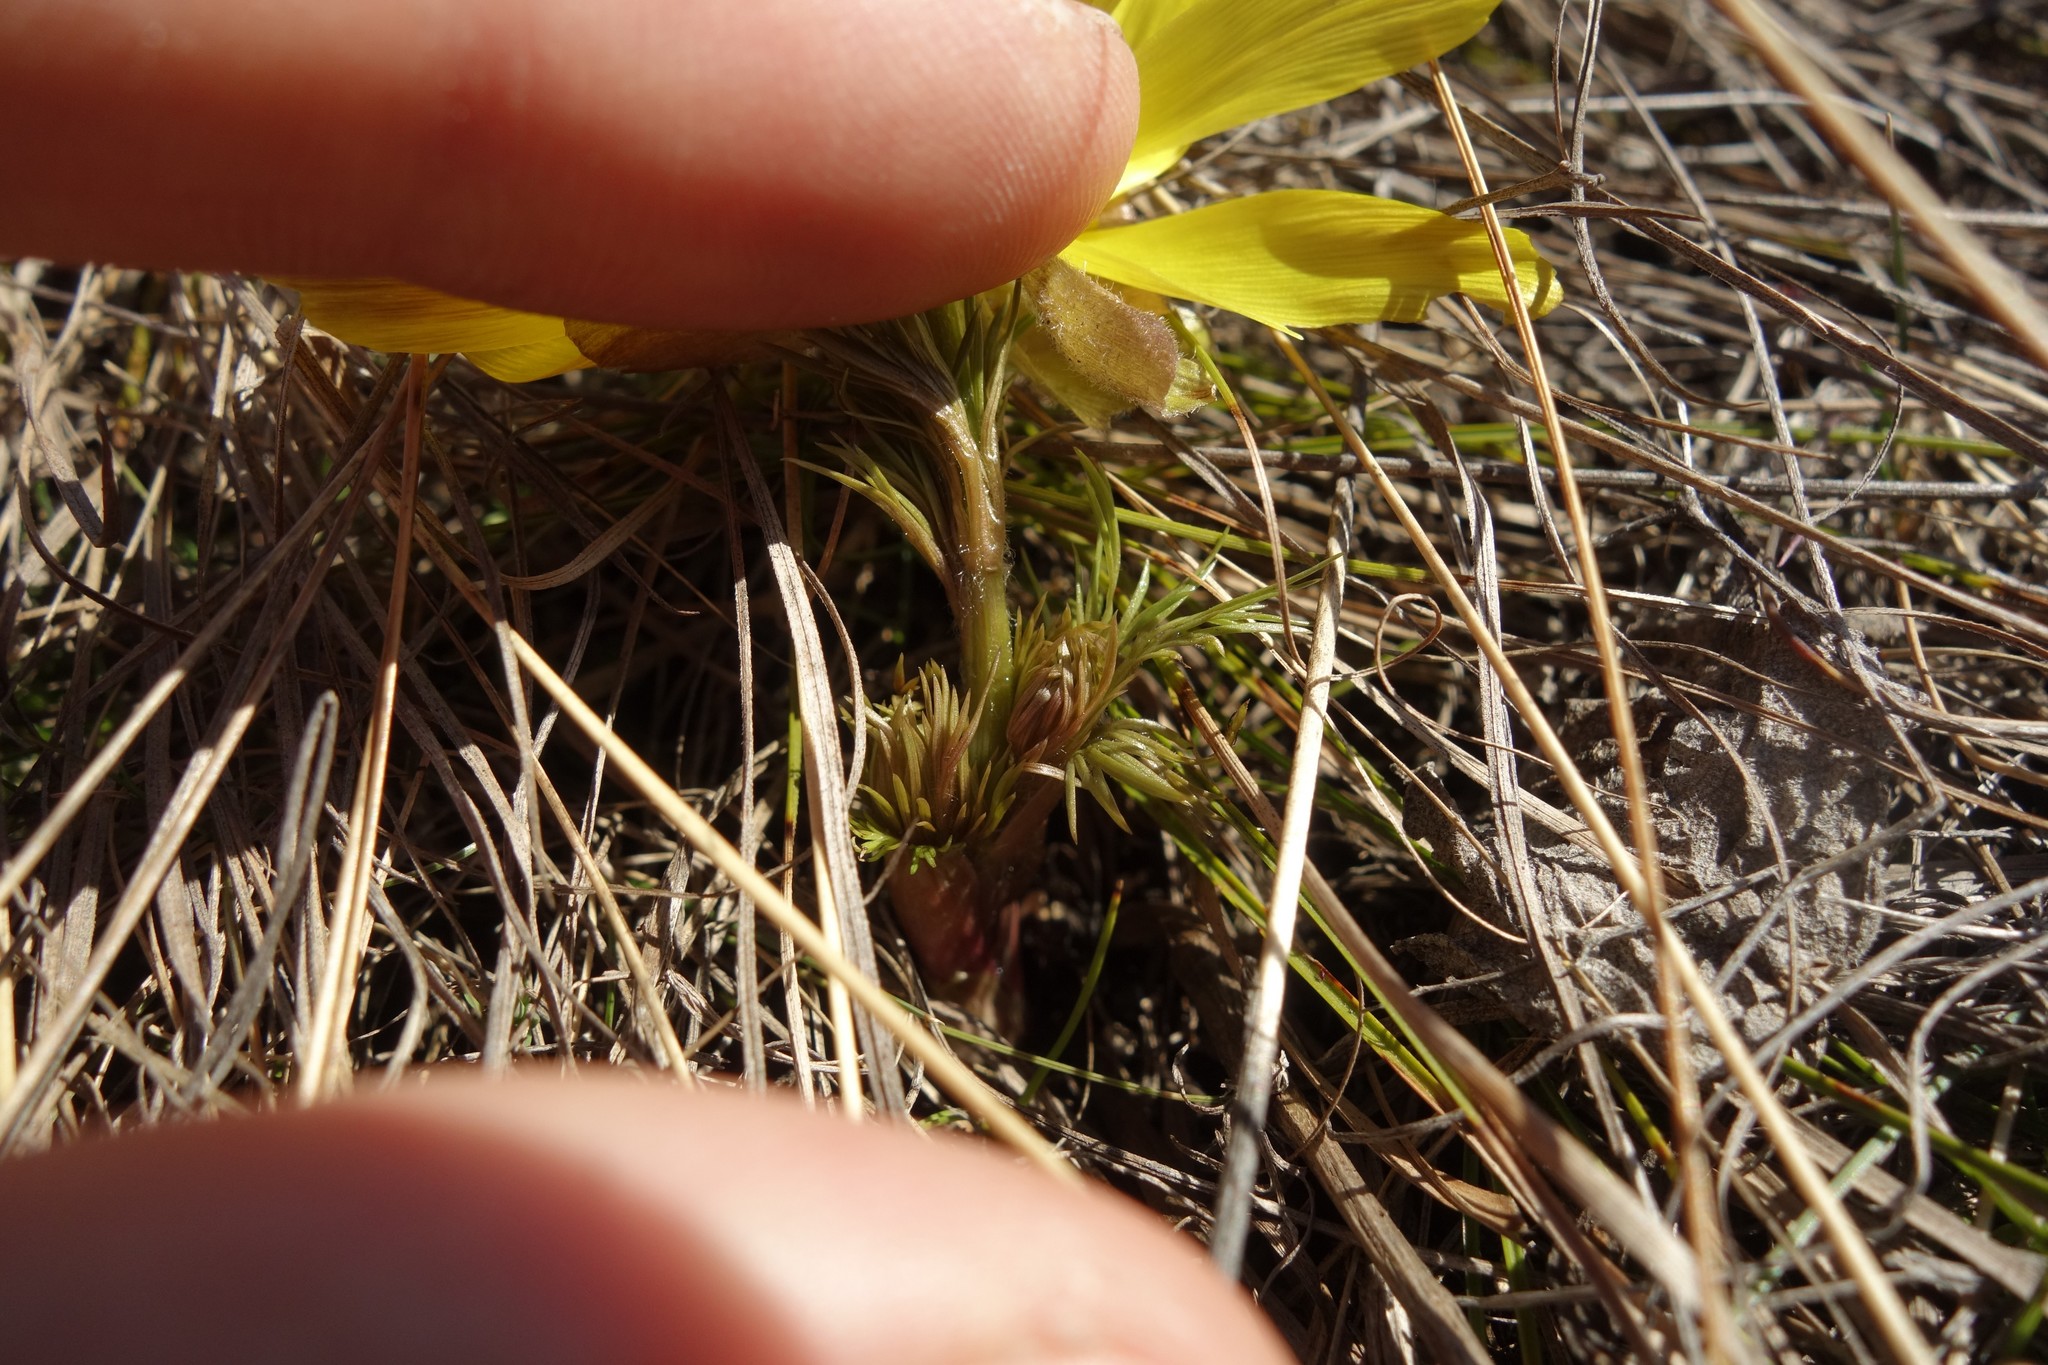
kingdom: Plantae
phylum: Tracheophyta
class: Magnoliopsida
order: Ranunculales
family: Ranunculaceae
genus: Adonis
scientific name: Adonis vernalis
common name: Yellow pheasants-eye
